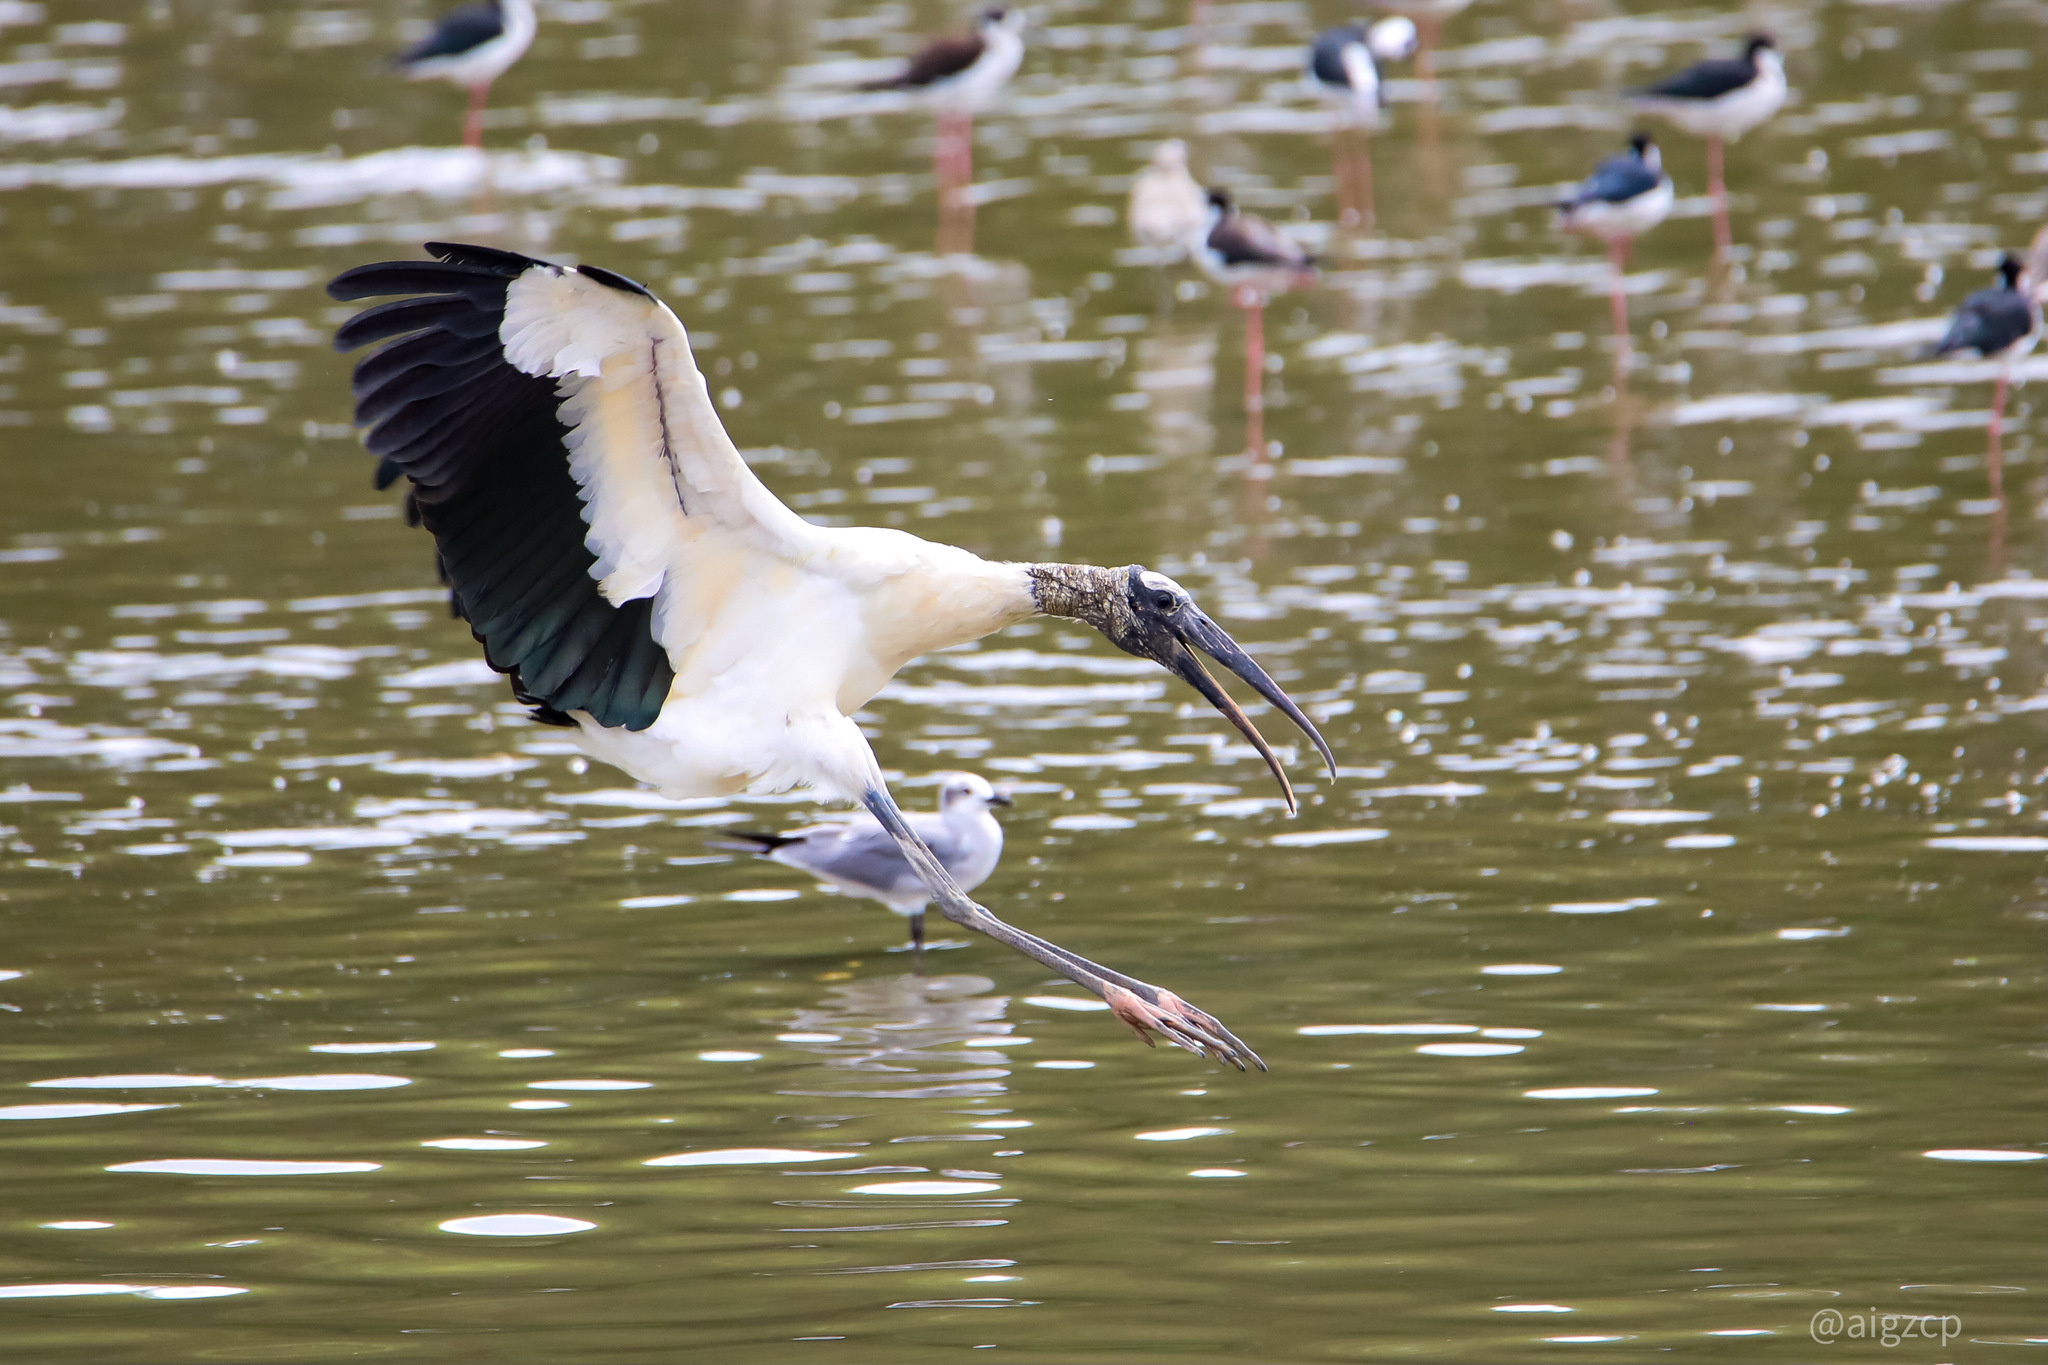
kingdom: Animalia
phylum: Chordata
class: Aves
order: Ciconiiformes
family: Ciconiidae
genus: Mycteria
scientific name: Mycteria americana
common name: Wood stork
